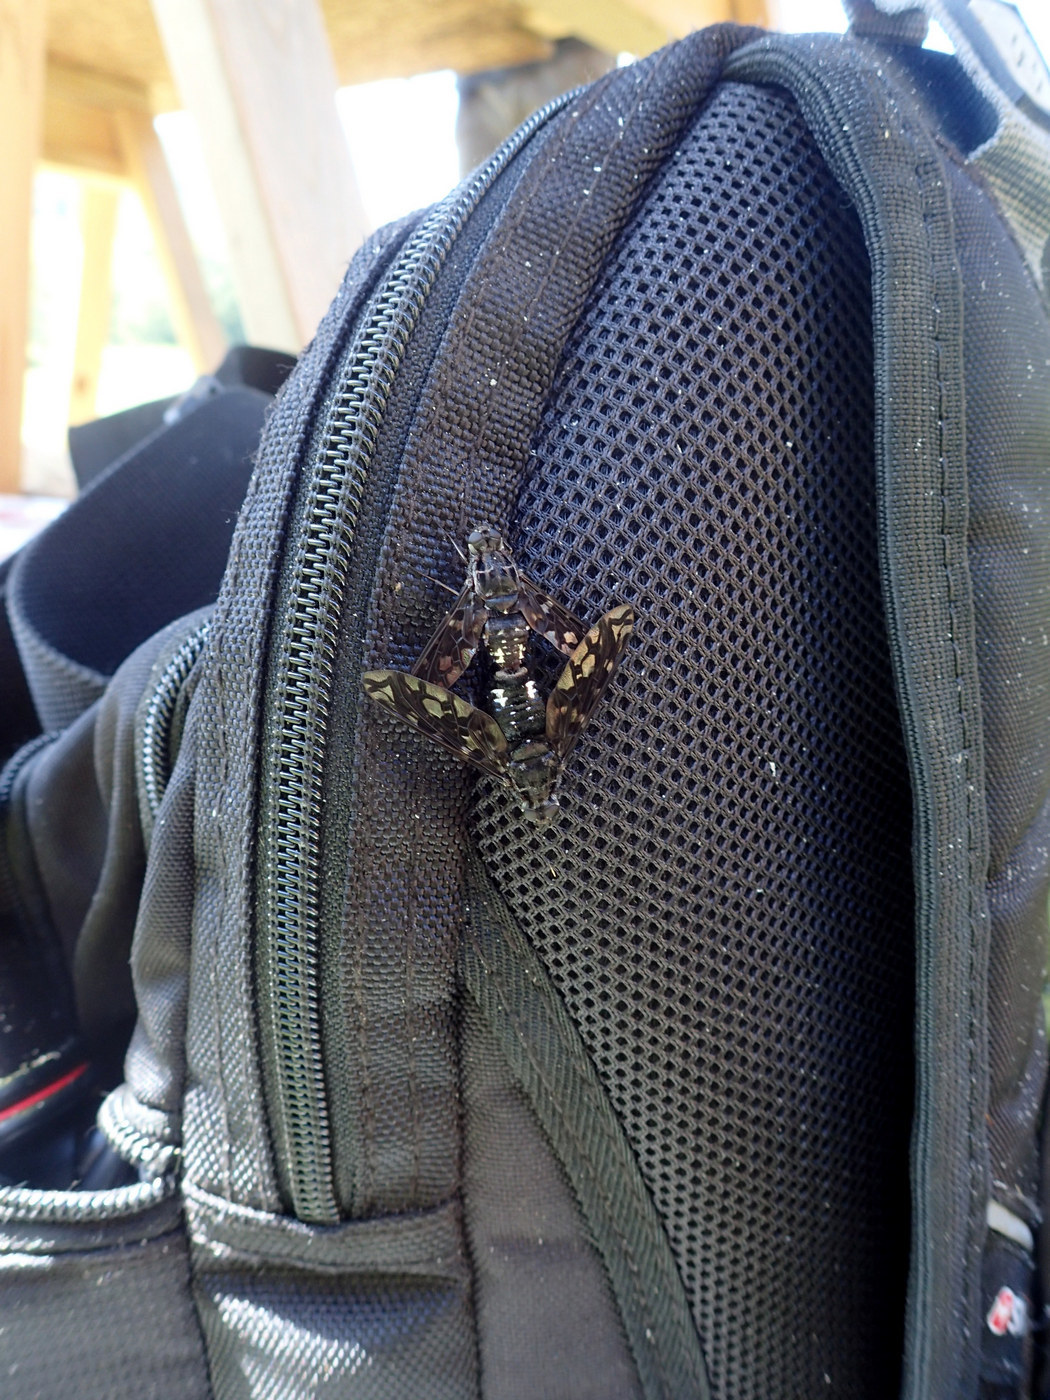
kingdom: Animalia
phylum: Arthropoda
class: Insecta
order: Diptera
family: Bombyliidae
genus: Xenox
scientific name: Xenox tigrinus
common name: Tiger bee fly
